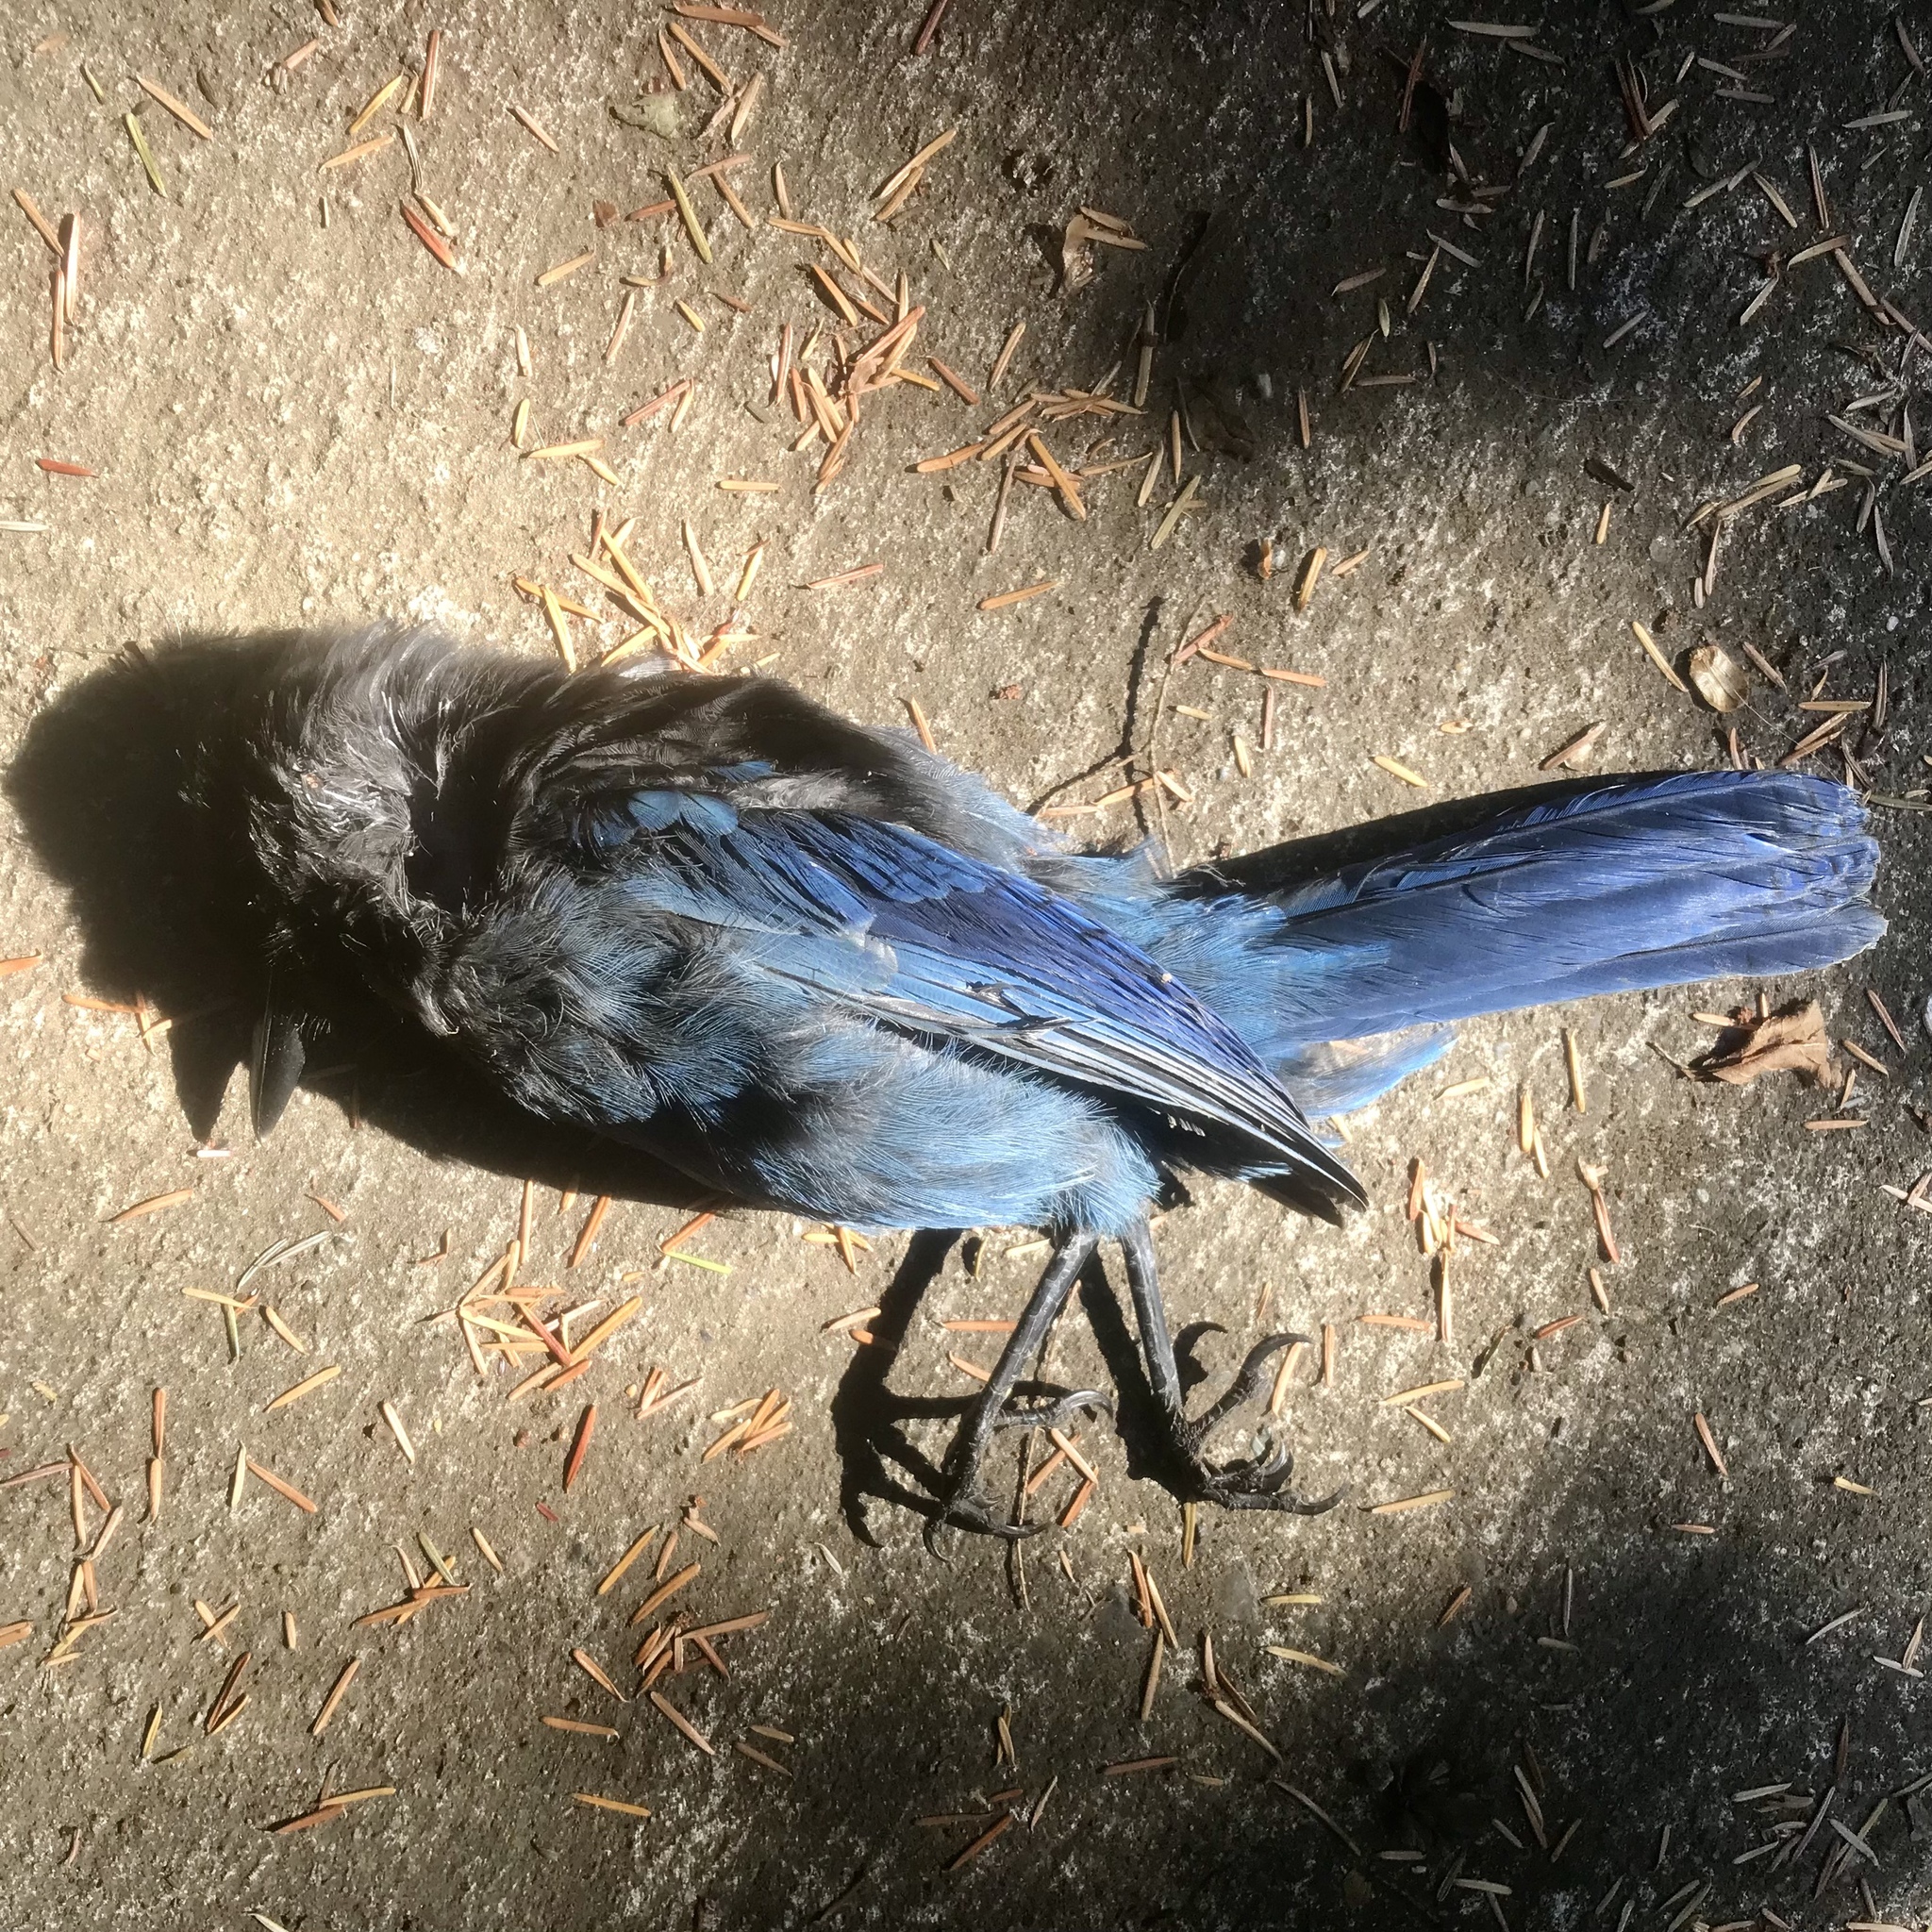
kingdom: Animalia
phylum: Chordata
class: Aves
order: Passeriformes
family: Corvidae
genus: Cyanocitta
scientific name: Cyanocitta stelleri
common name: Steller's jay
